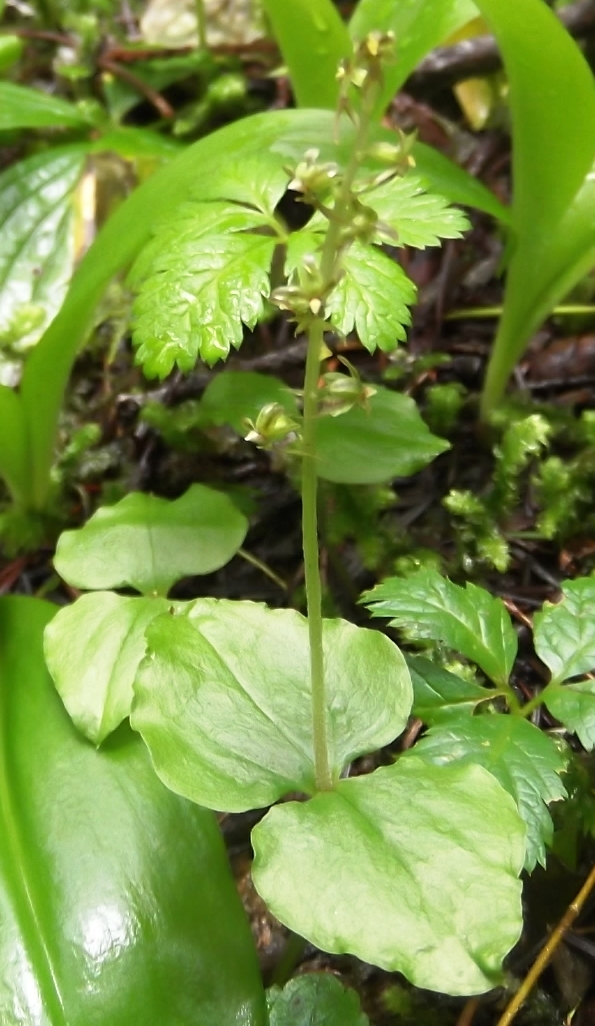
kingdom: Plantae
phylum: Tracheophyta
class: Liliopsida
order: Asparagales
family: Orchidaceae
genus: Neottia
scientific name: Neottia cordata
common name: Lesser twayblade
